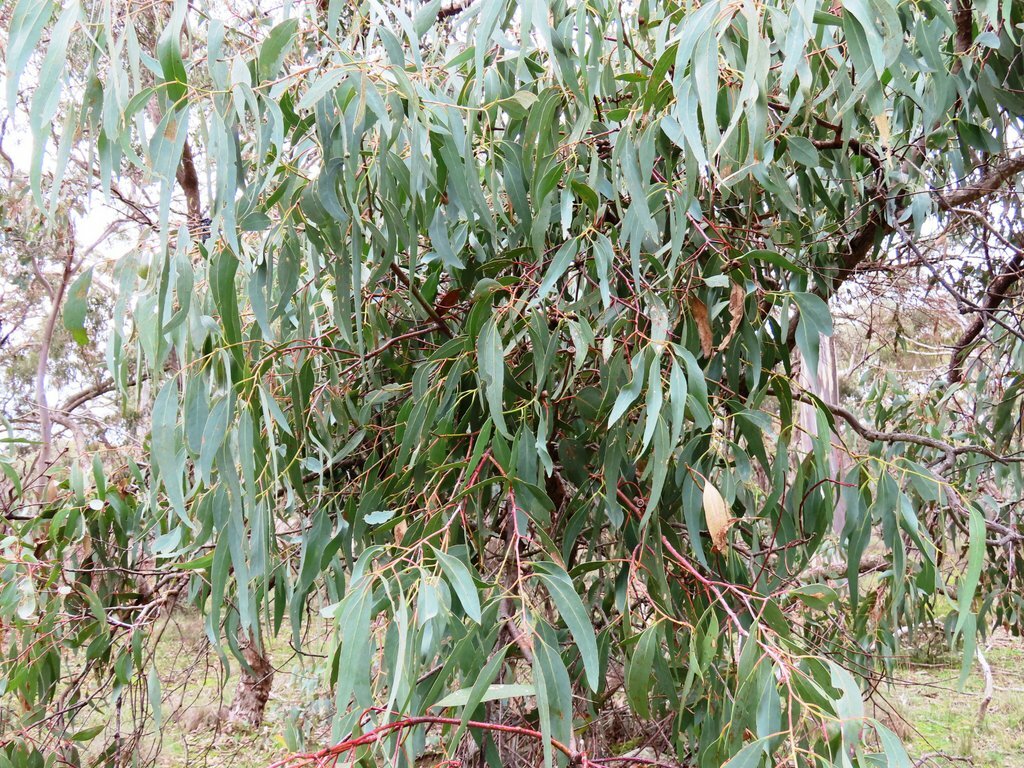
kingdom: Plantae
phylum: Tracheophyta
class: Magnoliopsida
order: Myrtales
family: Myrtaceae
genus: Eucalyptus
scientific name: Eucalyptus goniocalyx
